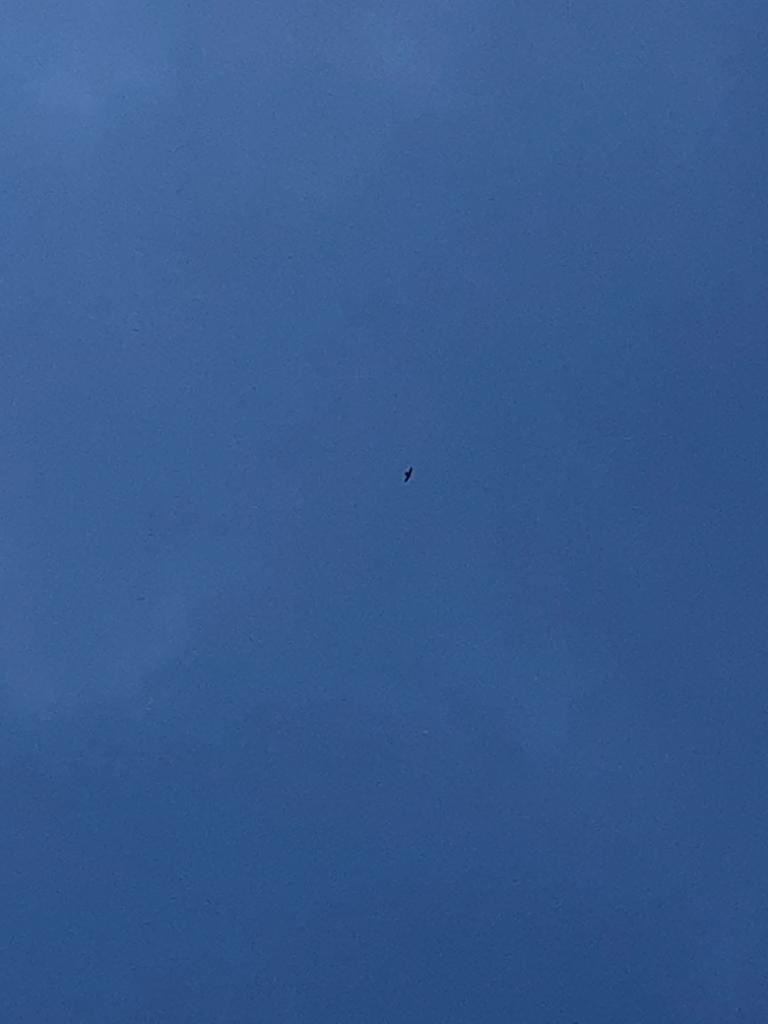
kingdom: Animalia
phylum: Chordata
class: Aves
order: Falconiformes
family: Falconidae
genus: Falco
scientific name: Falco peregrinus
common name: Peregrine falcon
